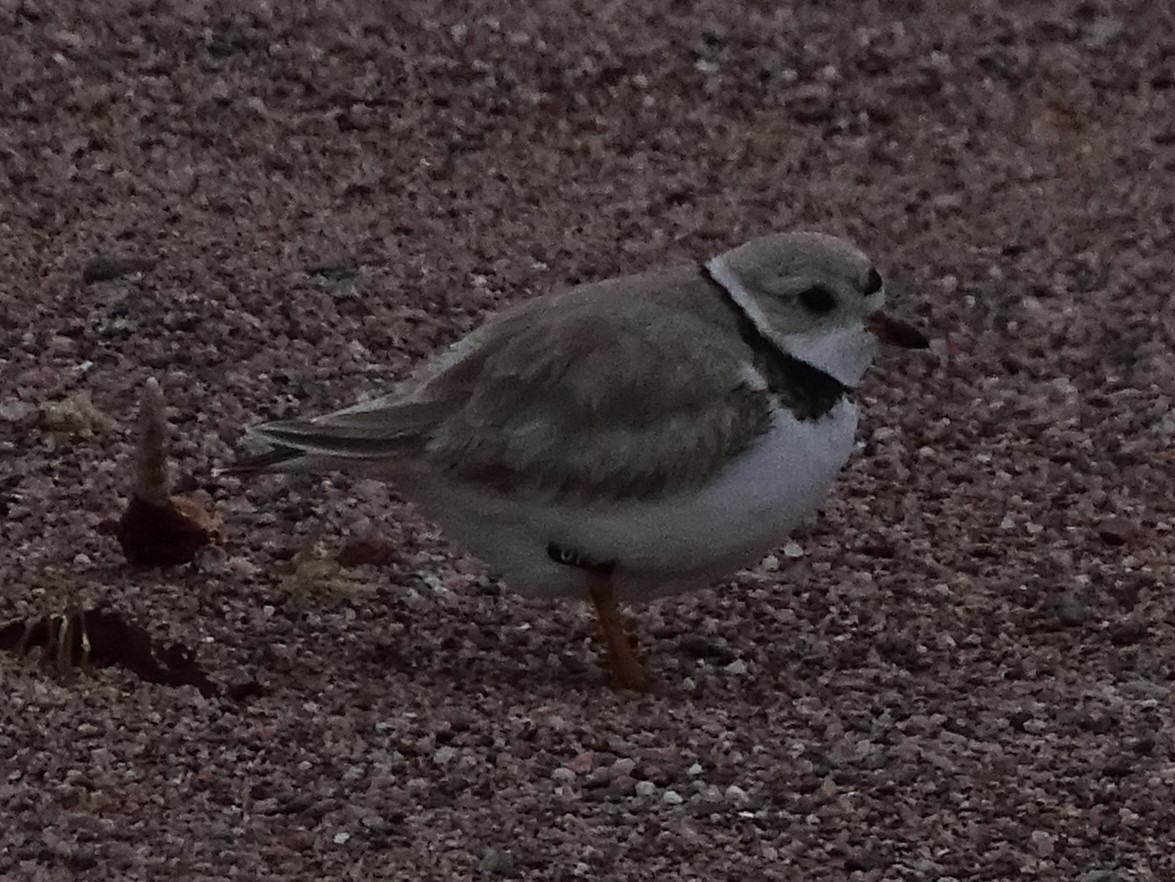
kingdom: Animalia
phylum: Chordata
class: Aves
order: Charadriiformes
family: Charadriidae
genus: Charadrius
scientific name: Charadrius melodus
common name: Piping plover
